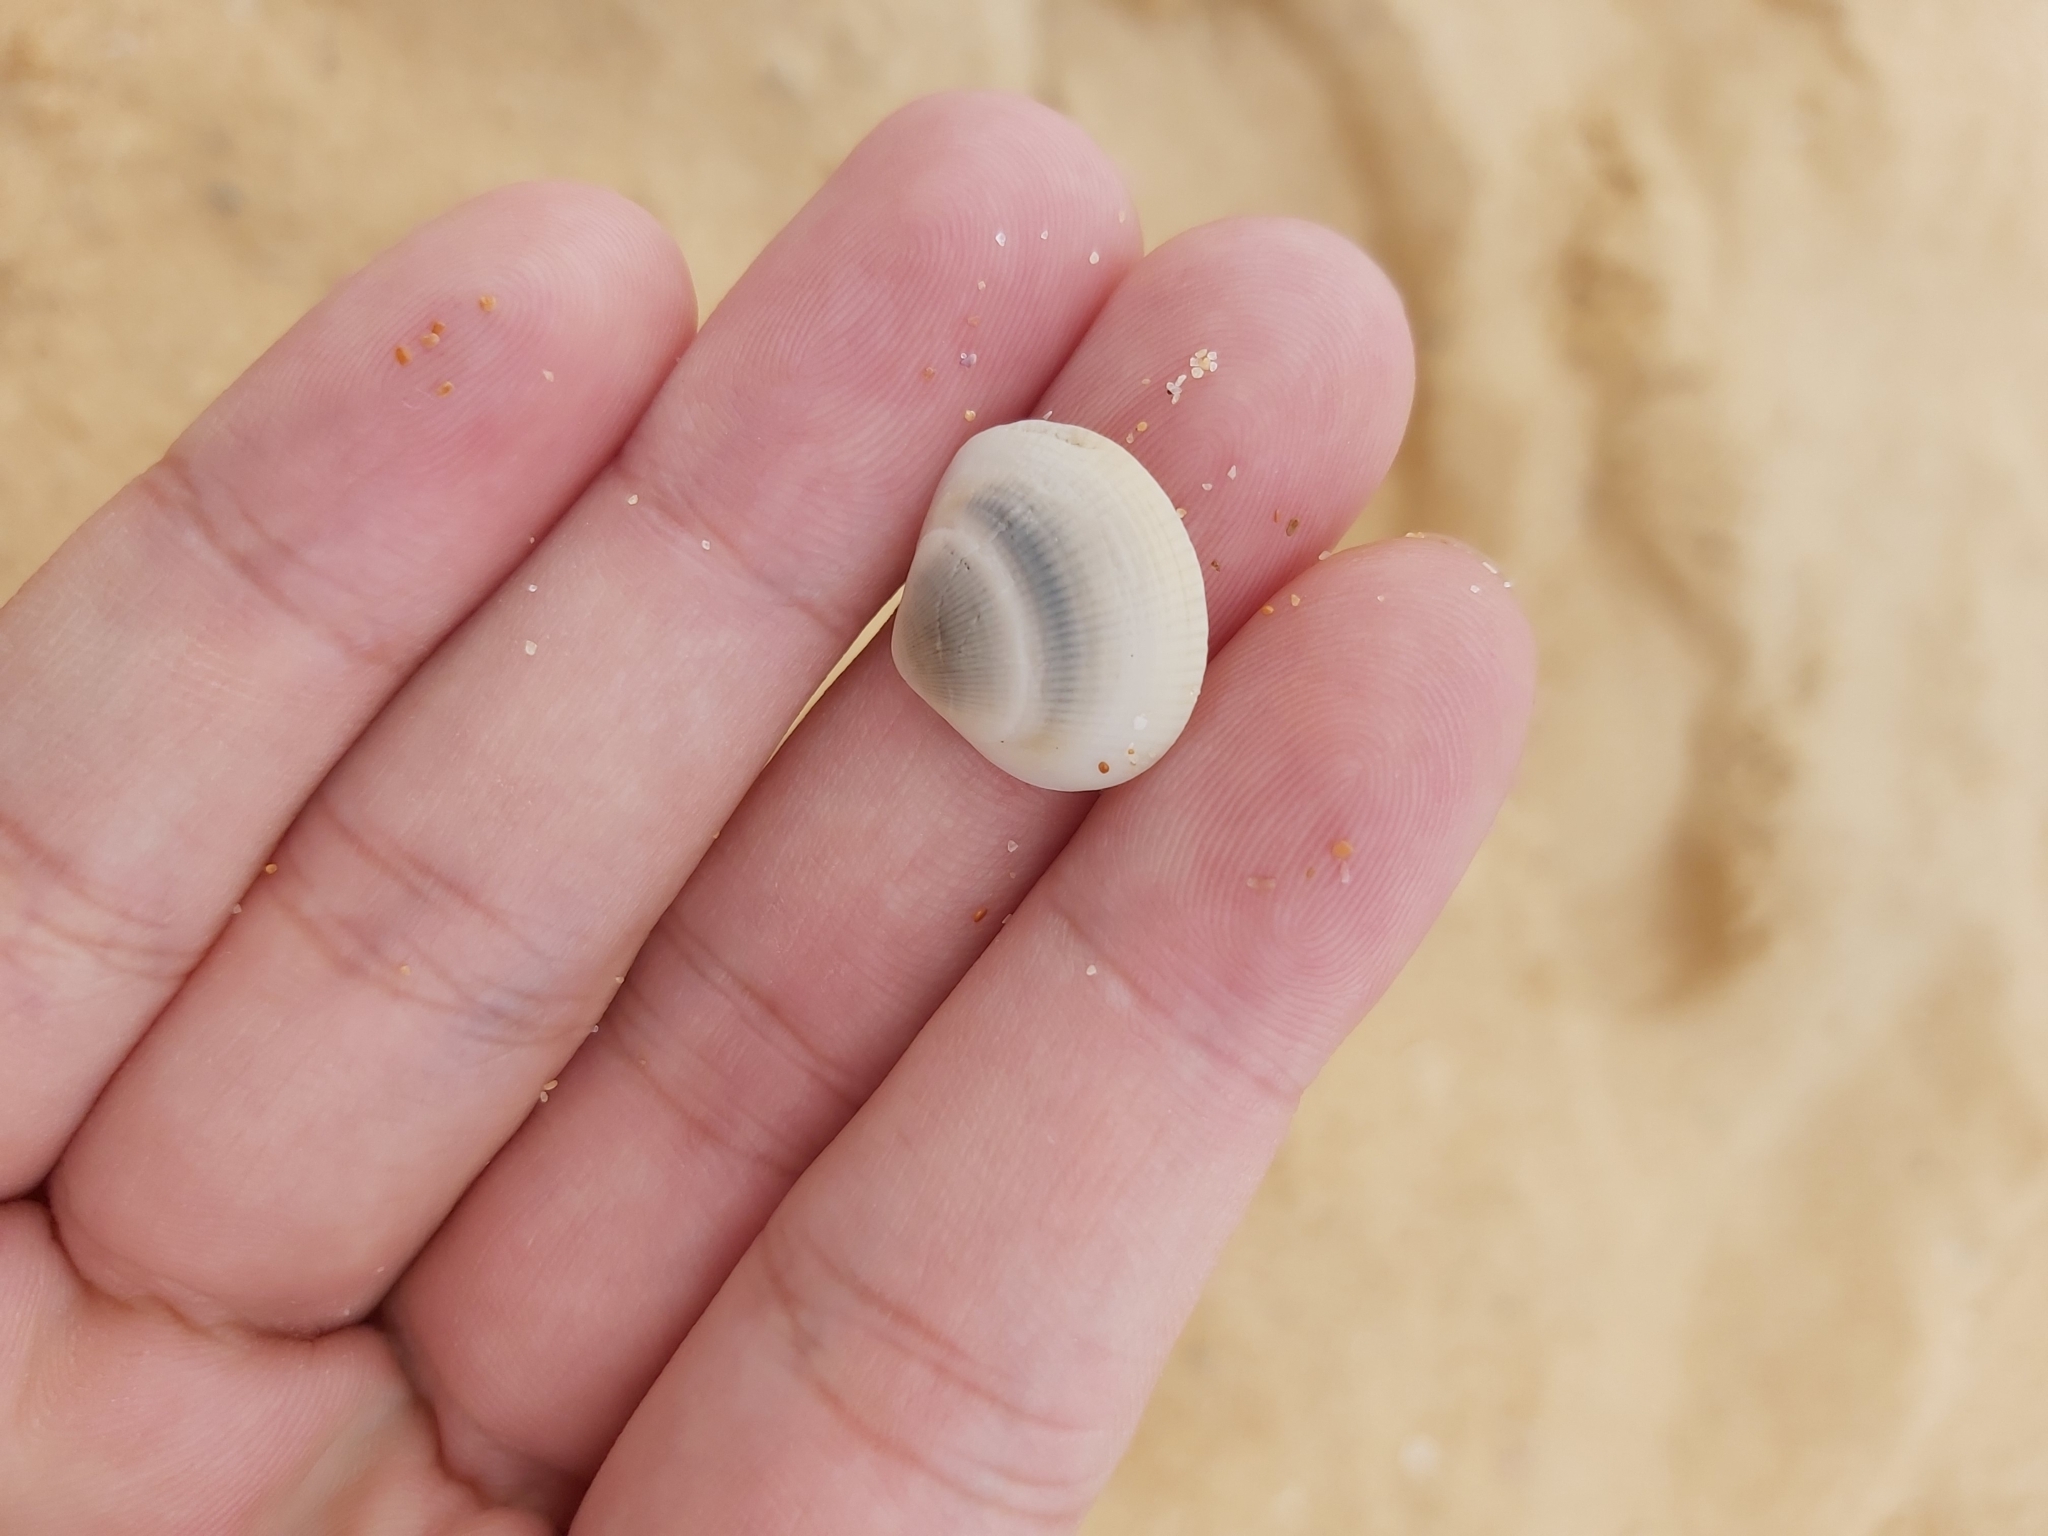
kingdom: Animalia
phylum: Mollusca
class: Bivalvia
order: Arcida
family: Glycymerididae
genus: Glycymeris
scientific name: Glycymeris grayana
